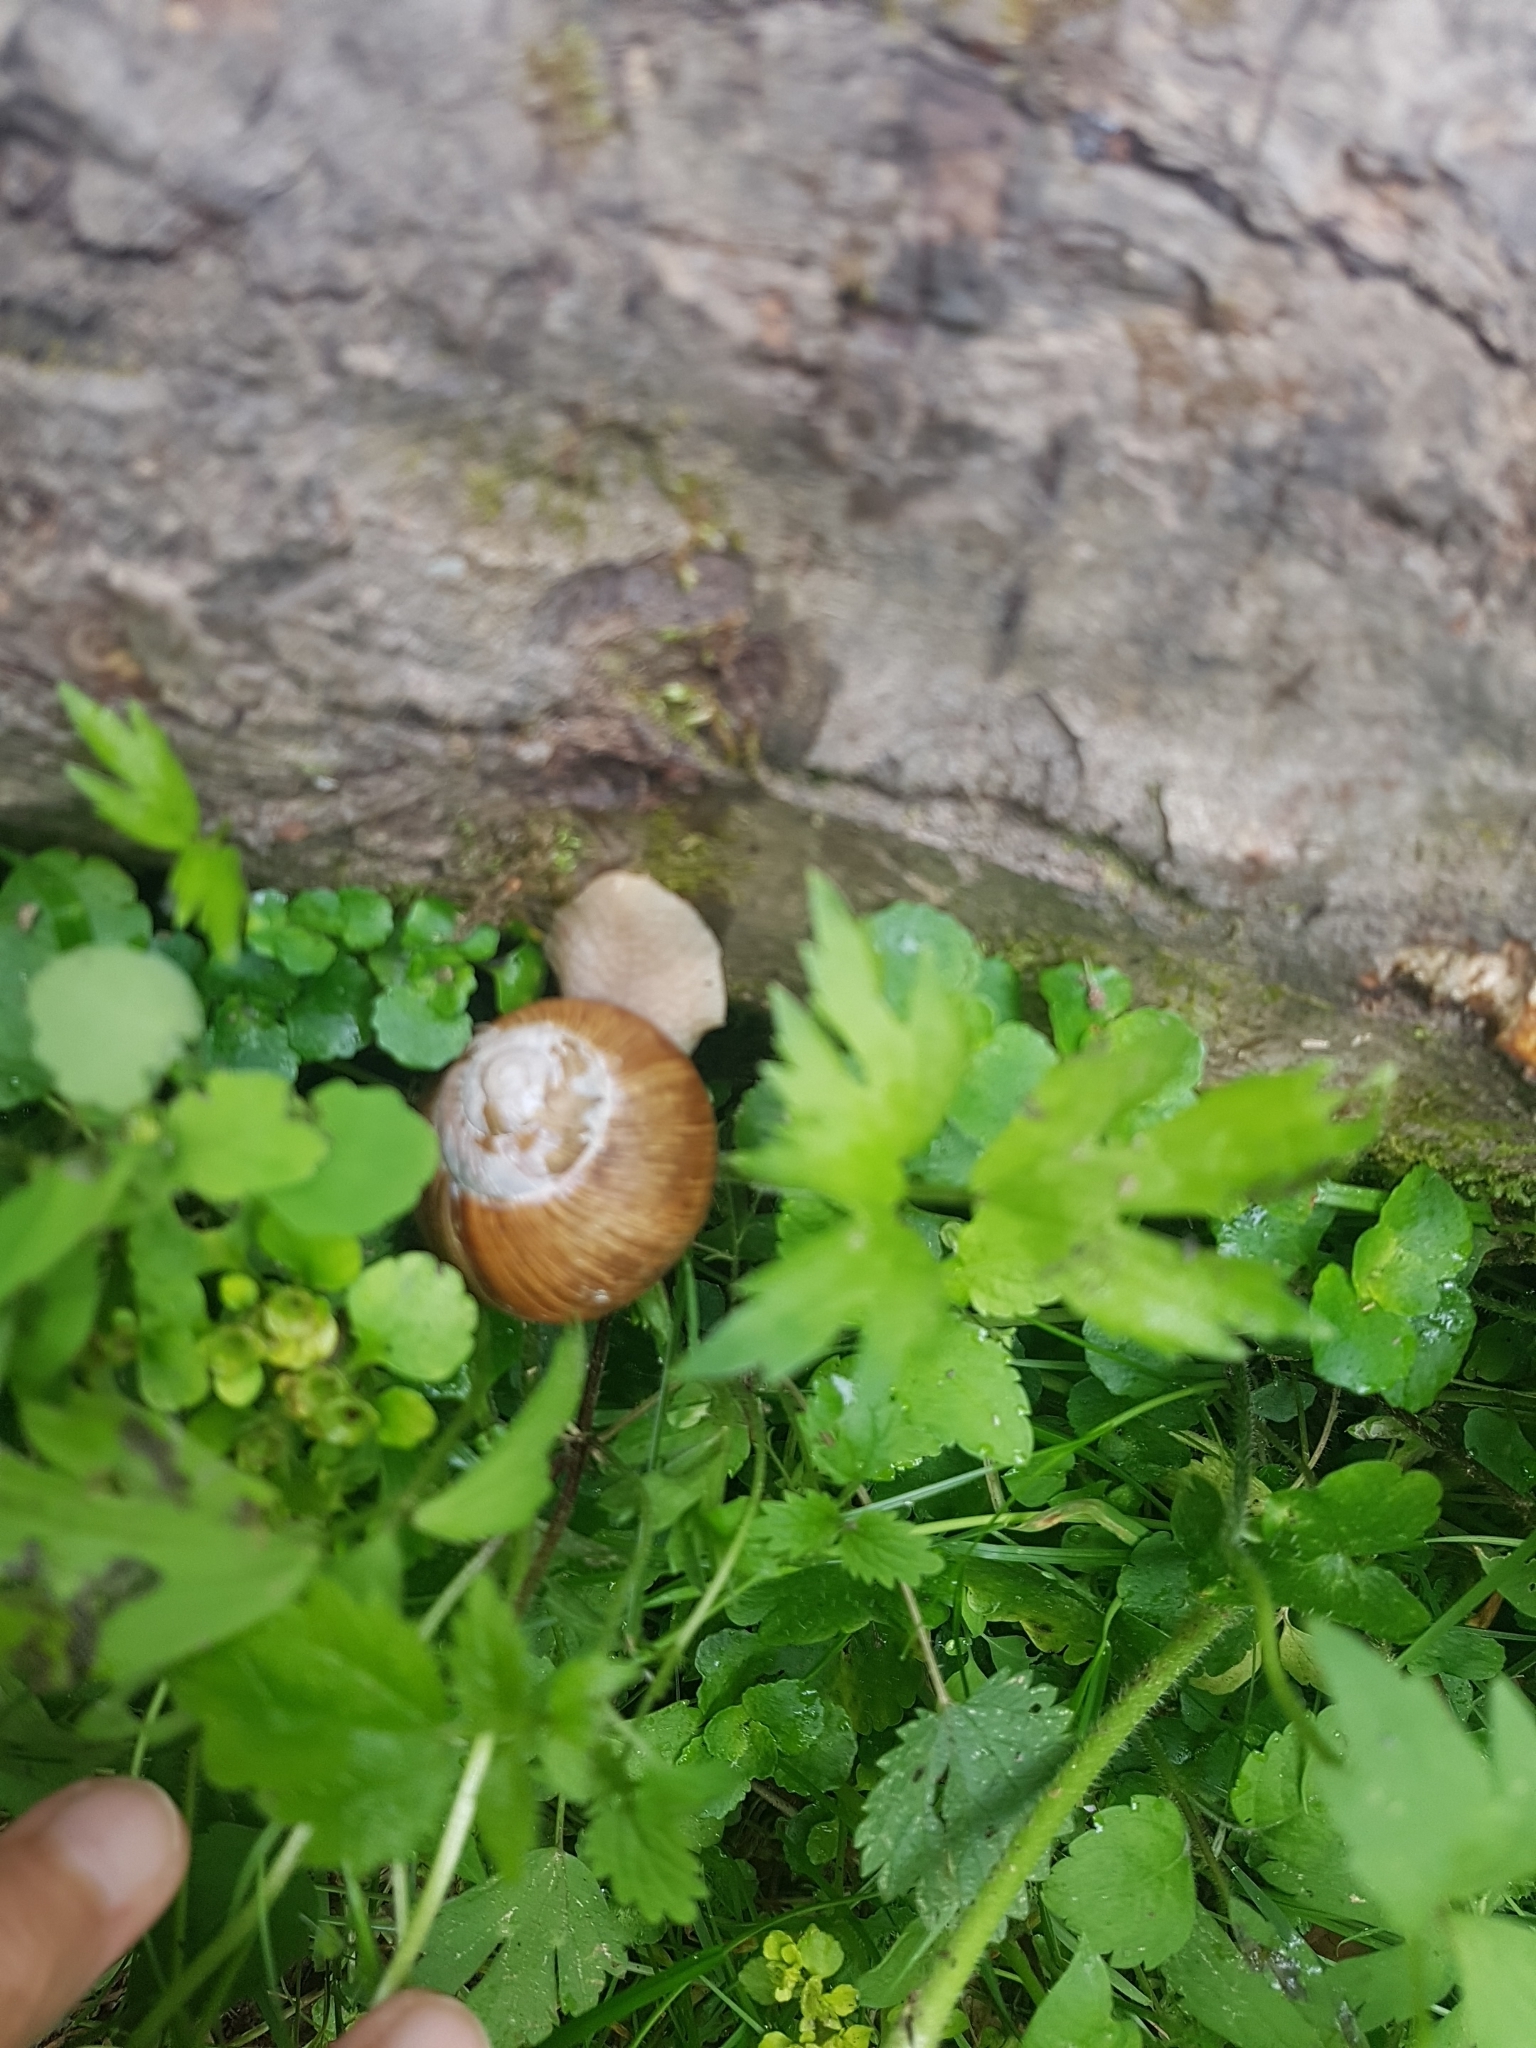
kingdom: Animalia
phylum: Mollusca
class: Gastropoda
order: Stylommatophora
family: Helicidae
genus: Helix
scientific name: Helix pomatia
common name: Roman snail
